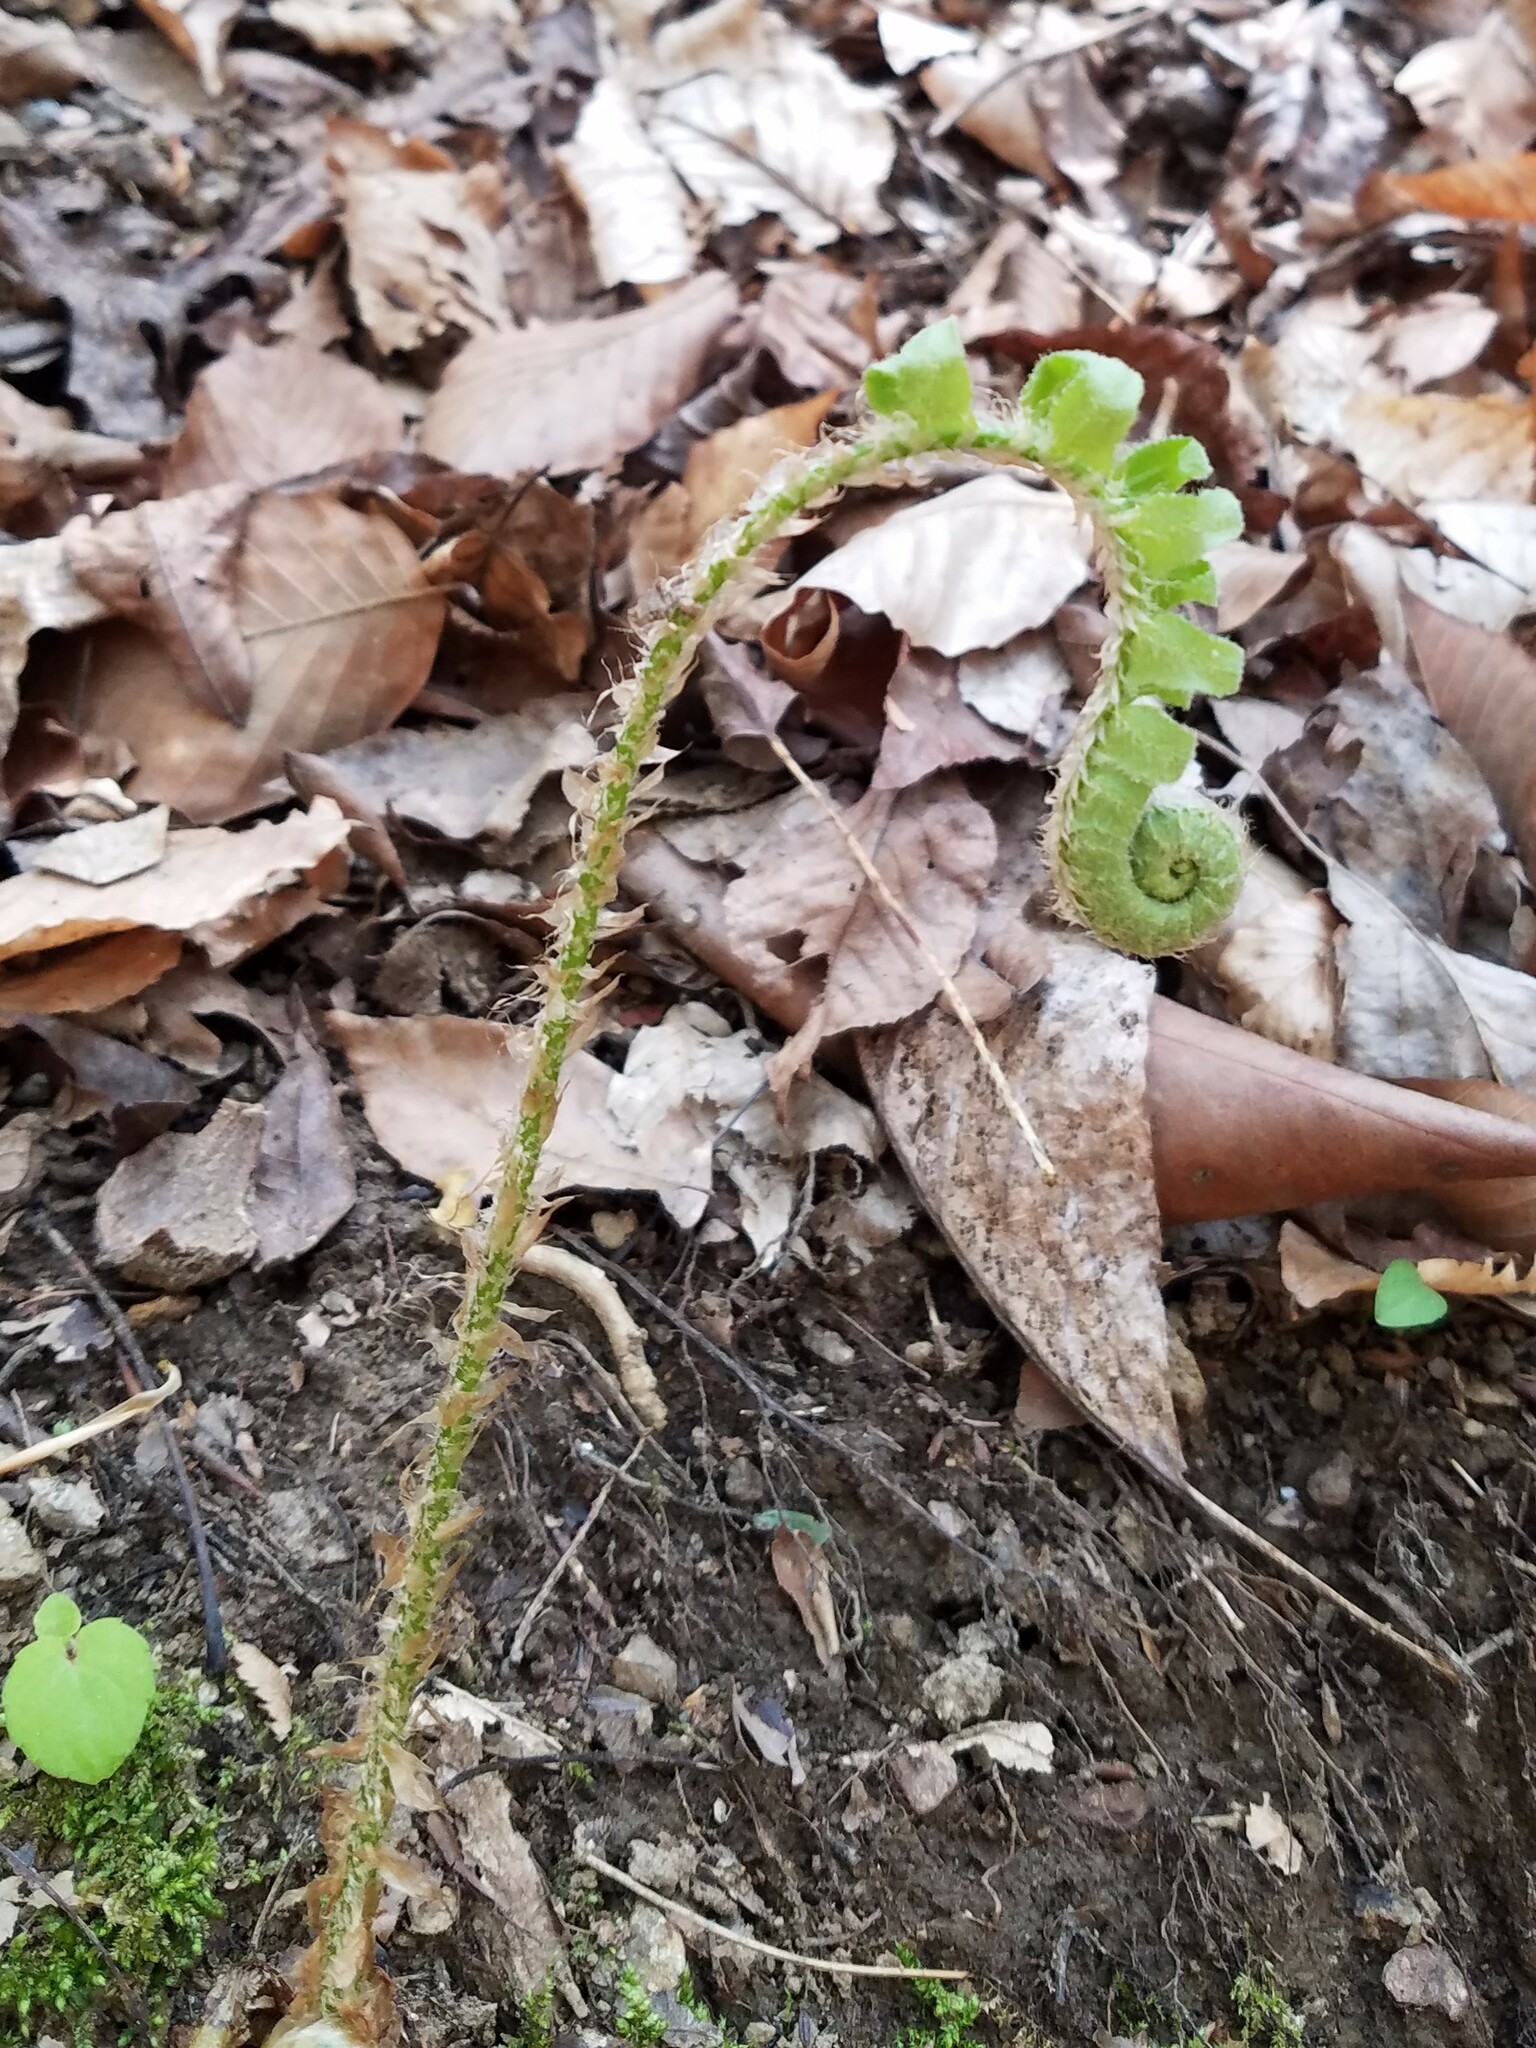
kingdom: Plantae
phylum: Tracheophyta
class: Polypodiopsida
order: Polypodiales
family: Dryopteridaceae
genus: Polystichum
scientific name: Polystichum acrostichoides
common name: Christmas fern
